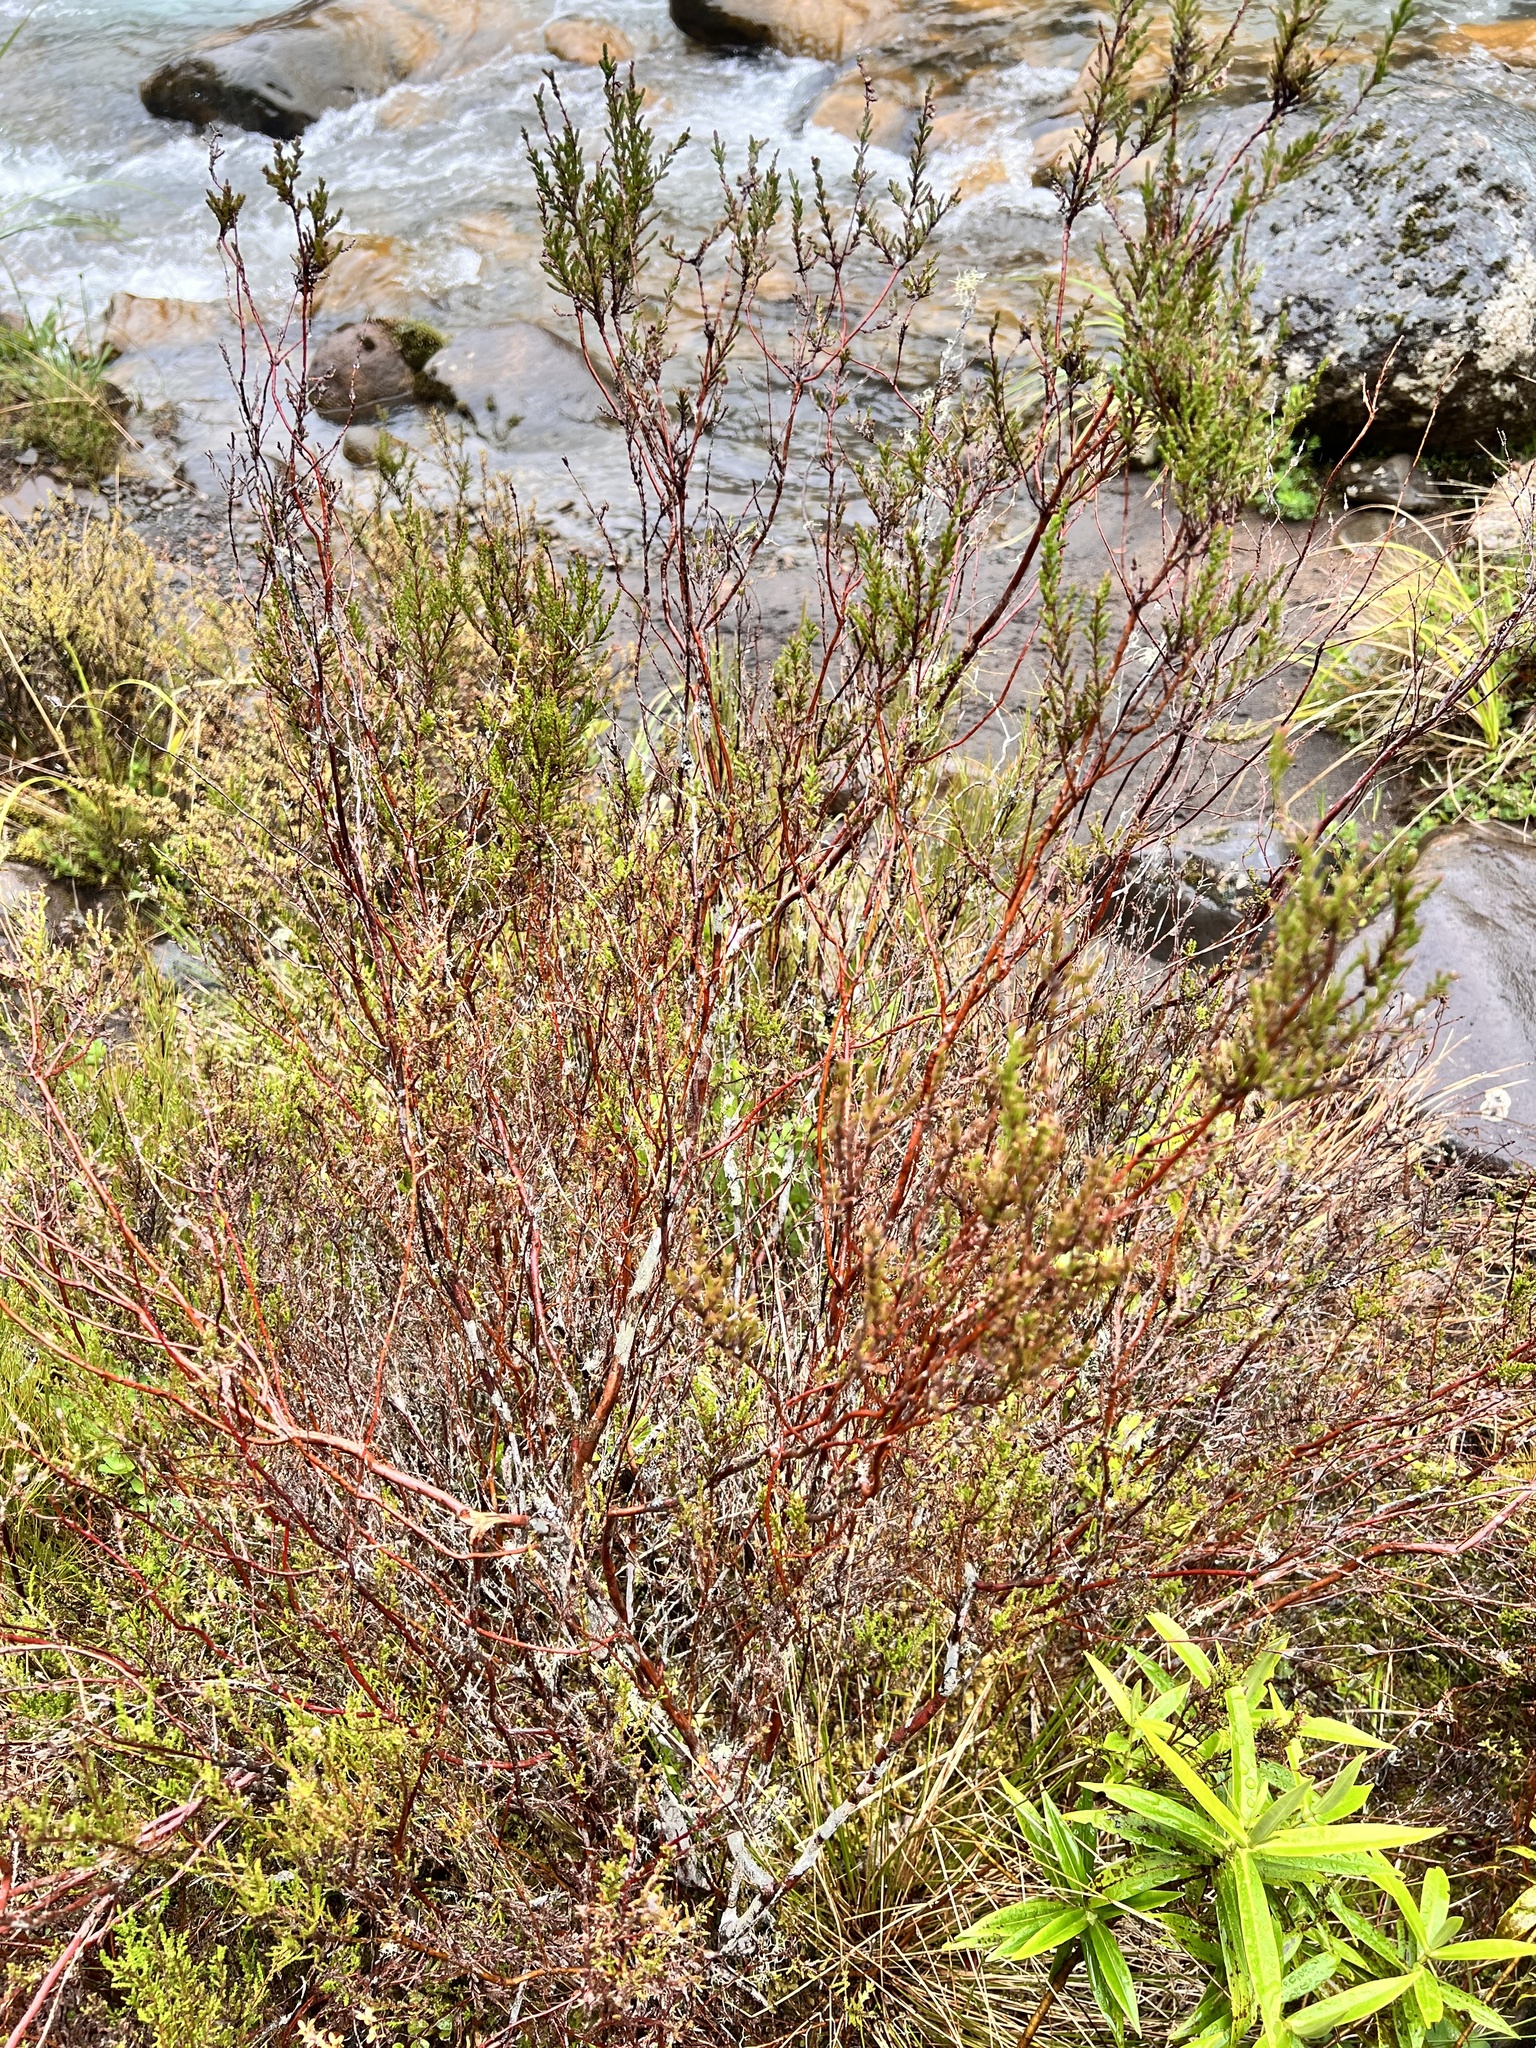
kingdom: Plantae
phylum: Tracheophyta
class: Magnoliopsida
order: Ericales
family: Ericaceae
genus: Calluna
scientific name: Calluna vulgaris
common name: Heather
